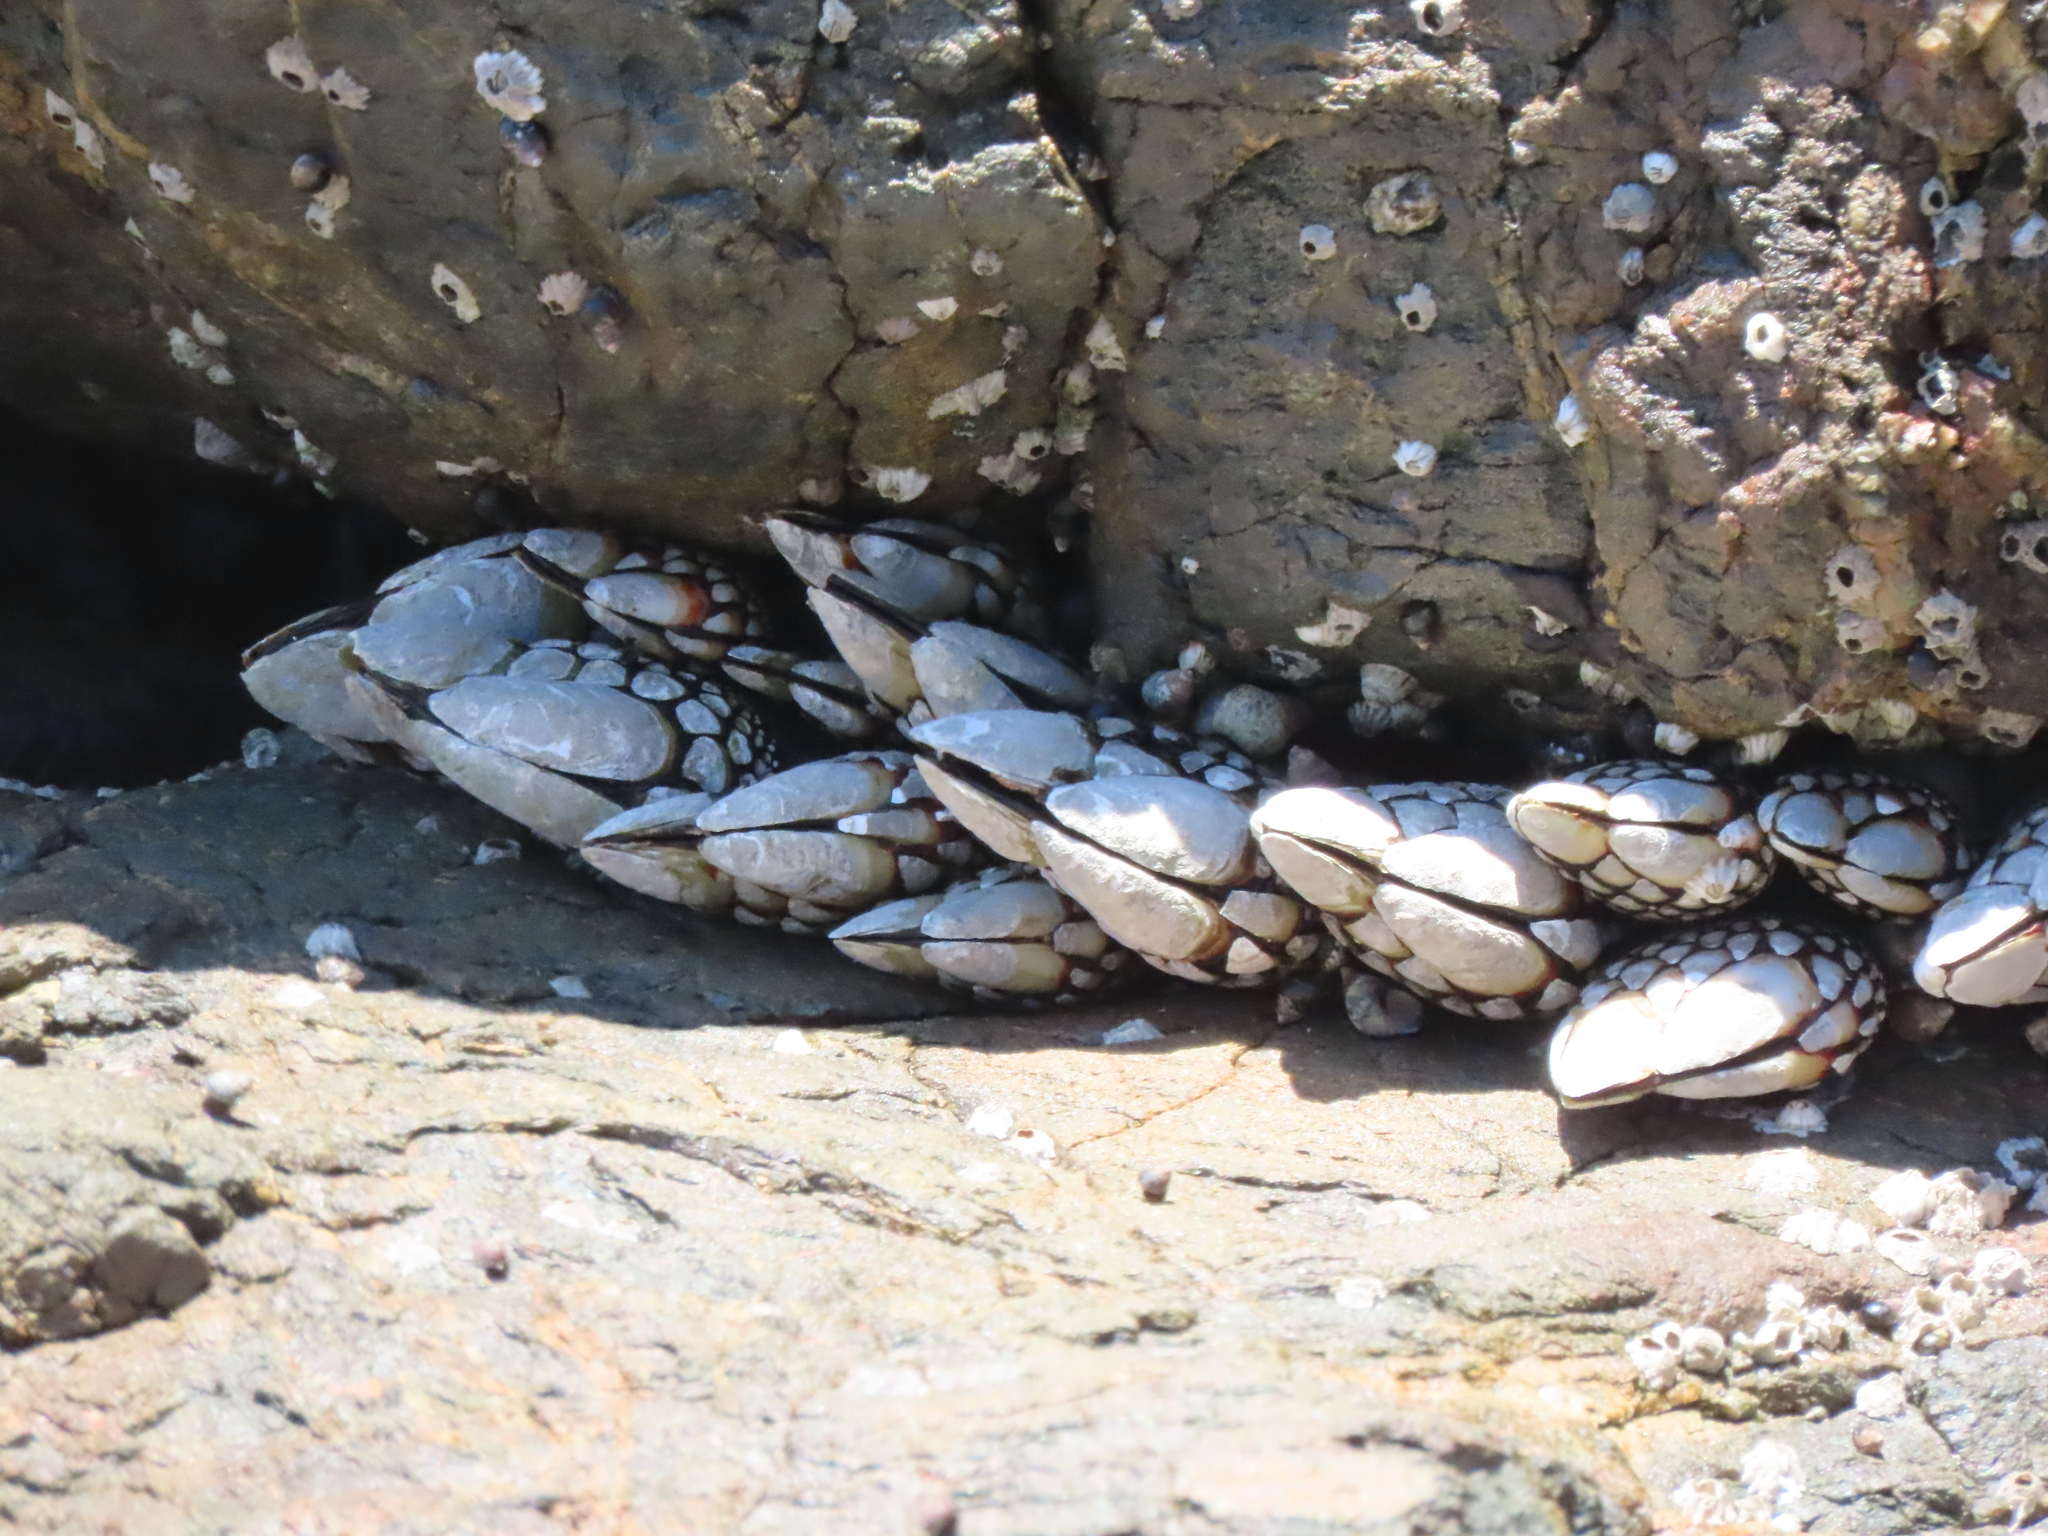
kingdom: Animalia
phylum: Arthropoda
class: Maxillopoda
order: Pedunculata
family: Pollicipedidae
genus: Pollicipes
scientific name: Pollicipes polymerus
